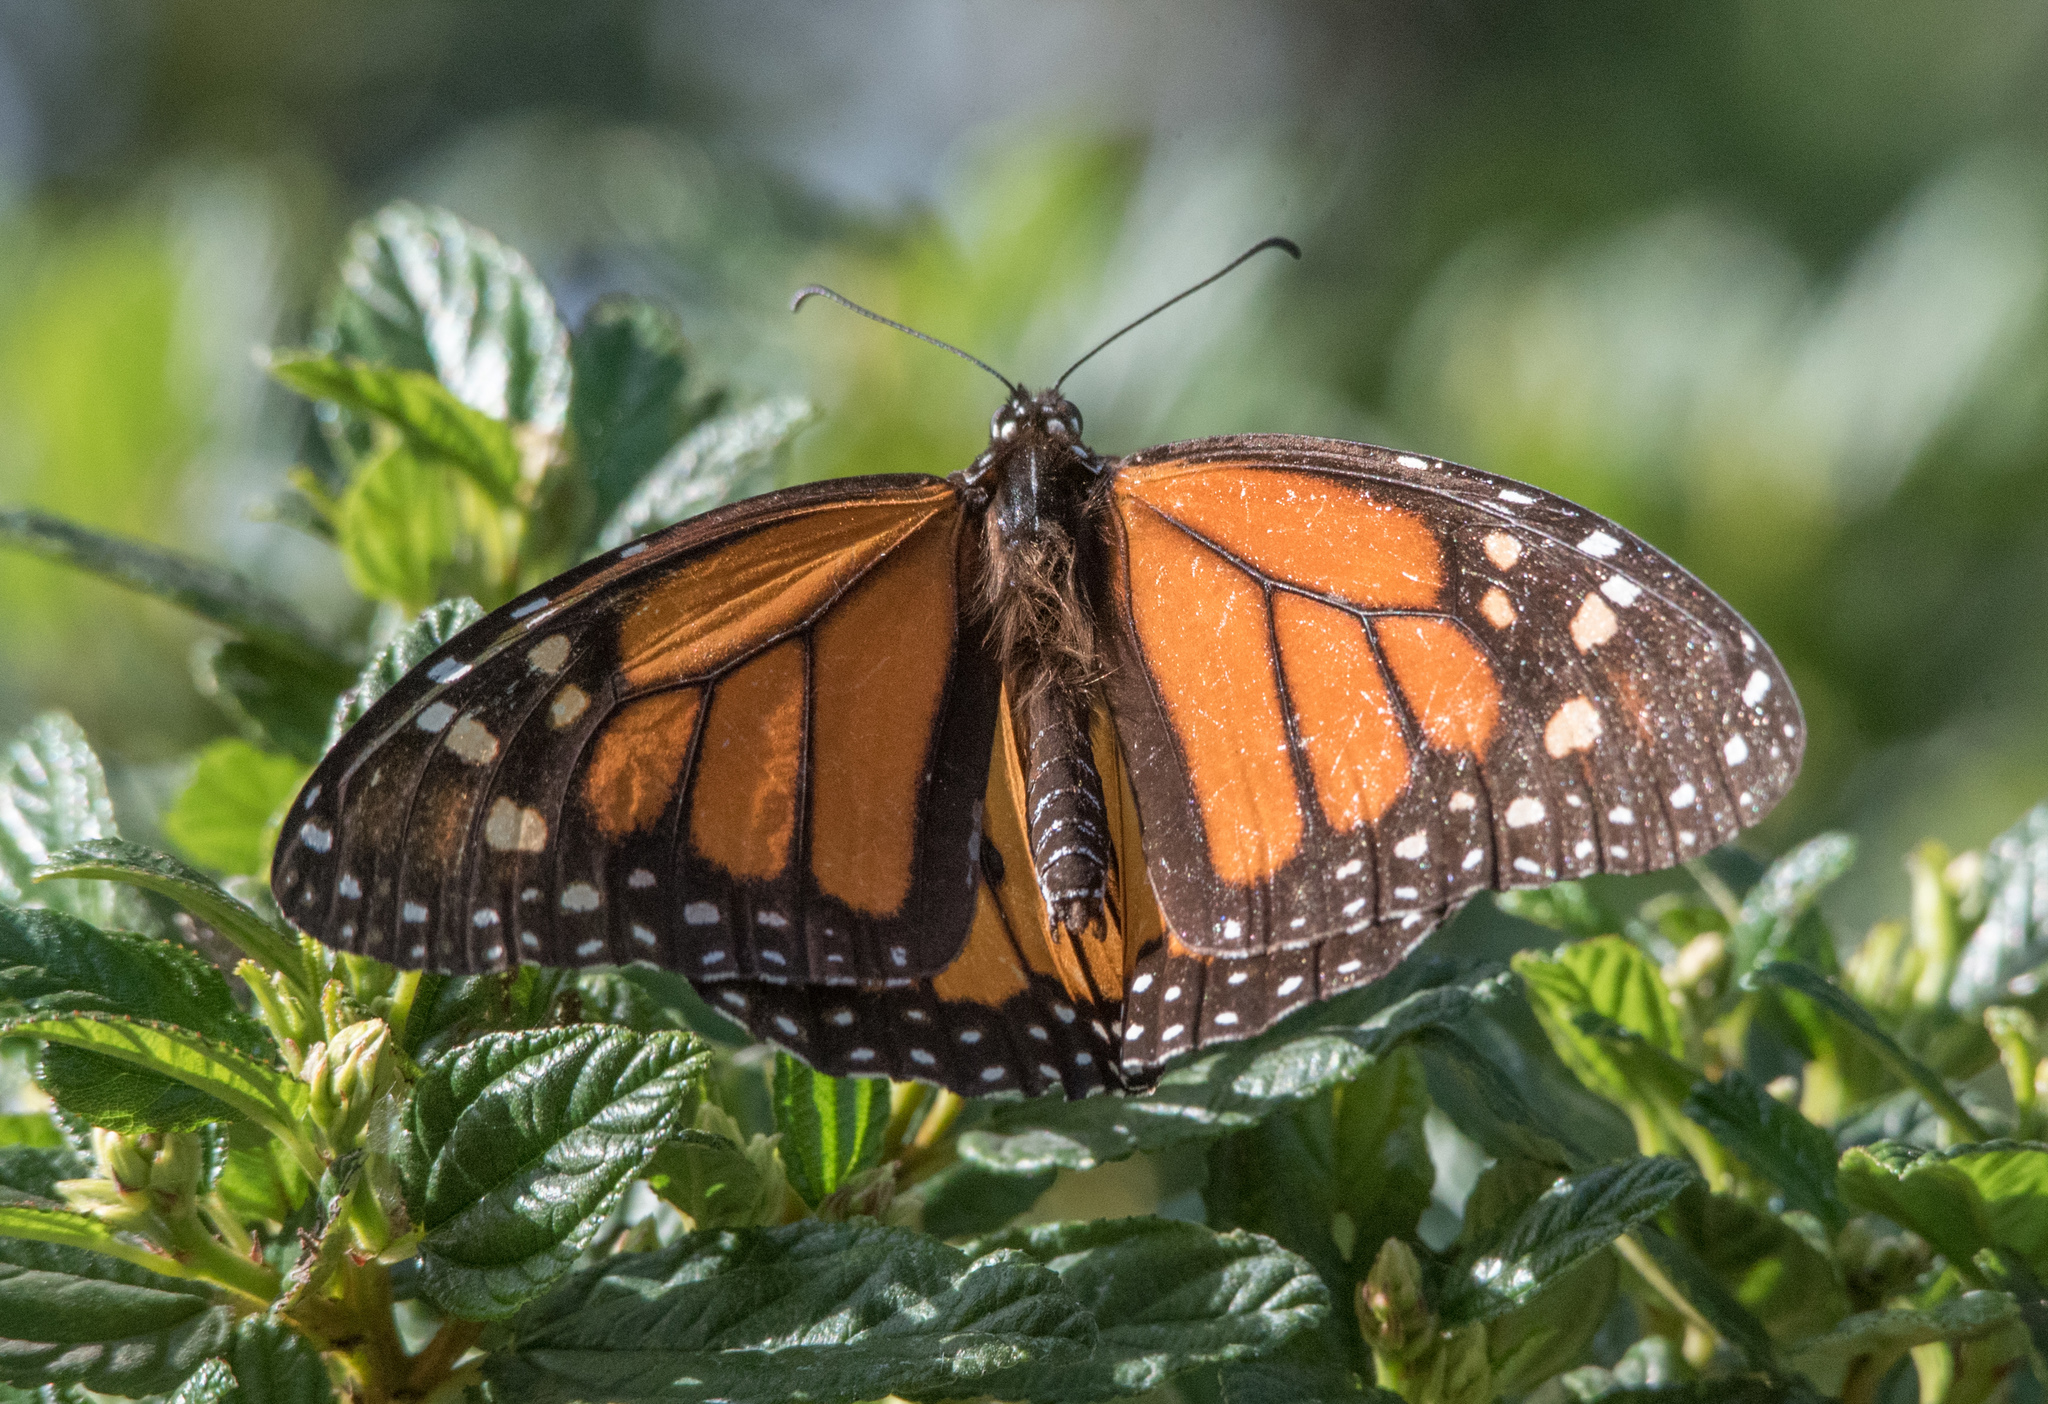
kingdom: Animalia
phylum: Arthropoda
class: Insecta
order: Lepidoptera
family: Nymphalidae
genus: Danaus
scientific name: Danaus plexippus
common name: Monarch
